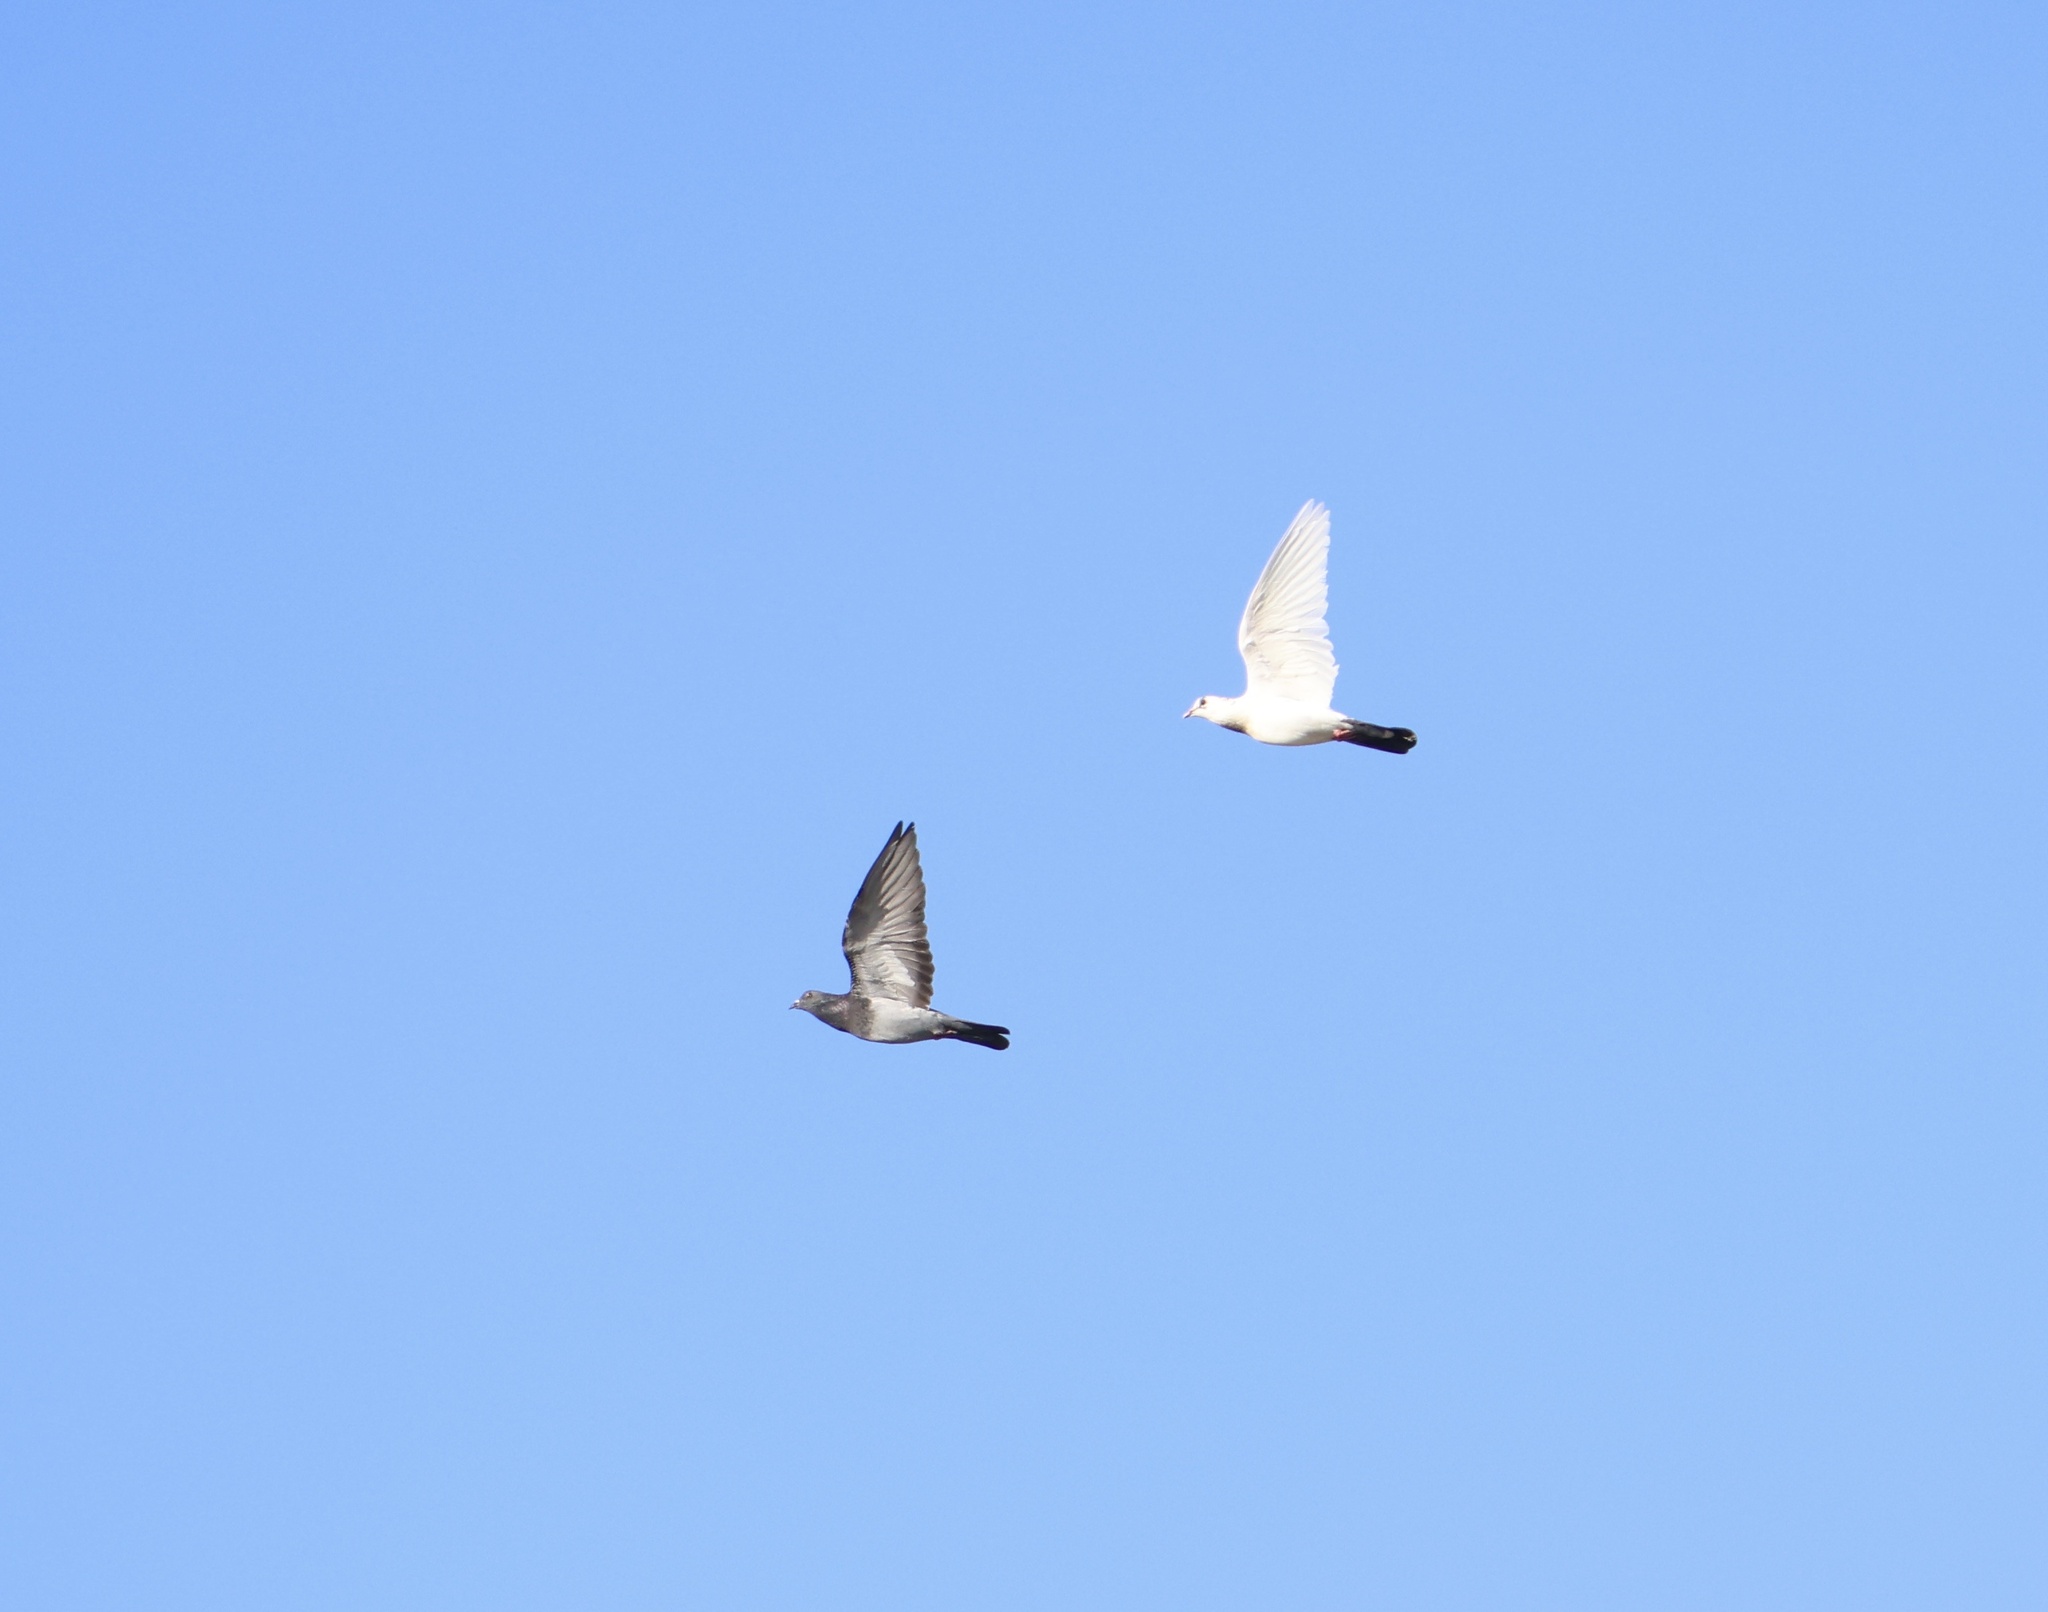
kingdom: Animalia
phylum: Chordata
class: Aves
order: Columbiformes
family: Columbidae
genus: Columba
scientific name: Columba livia
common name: Rock pigeon
